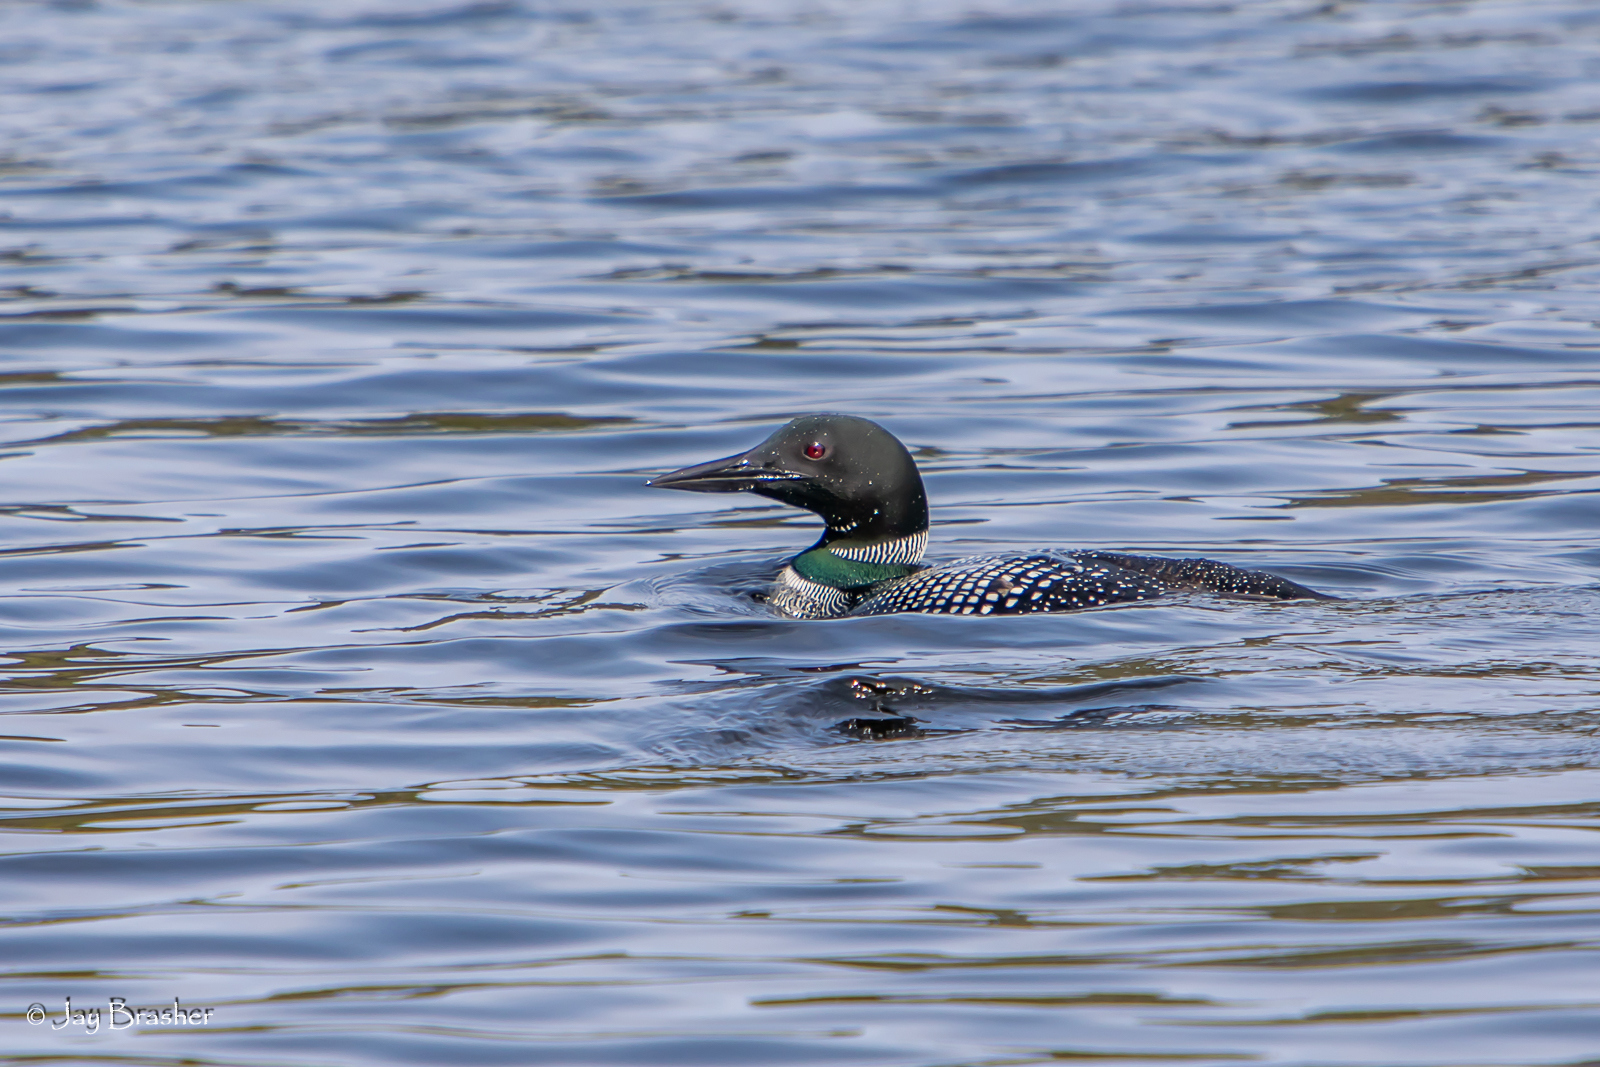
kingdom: Animalia
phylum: Chordata
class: Aves
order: Gaviiformes
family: Gaviidae
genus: Gavia
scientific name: Gavia immer
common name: Common loon
